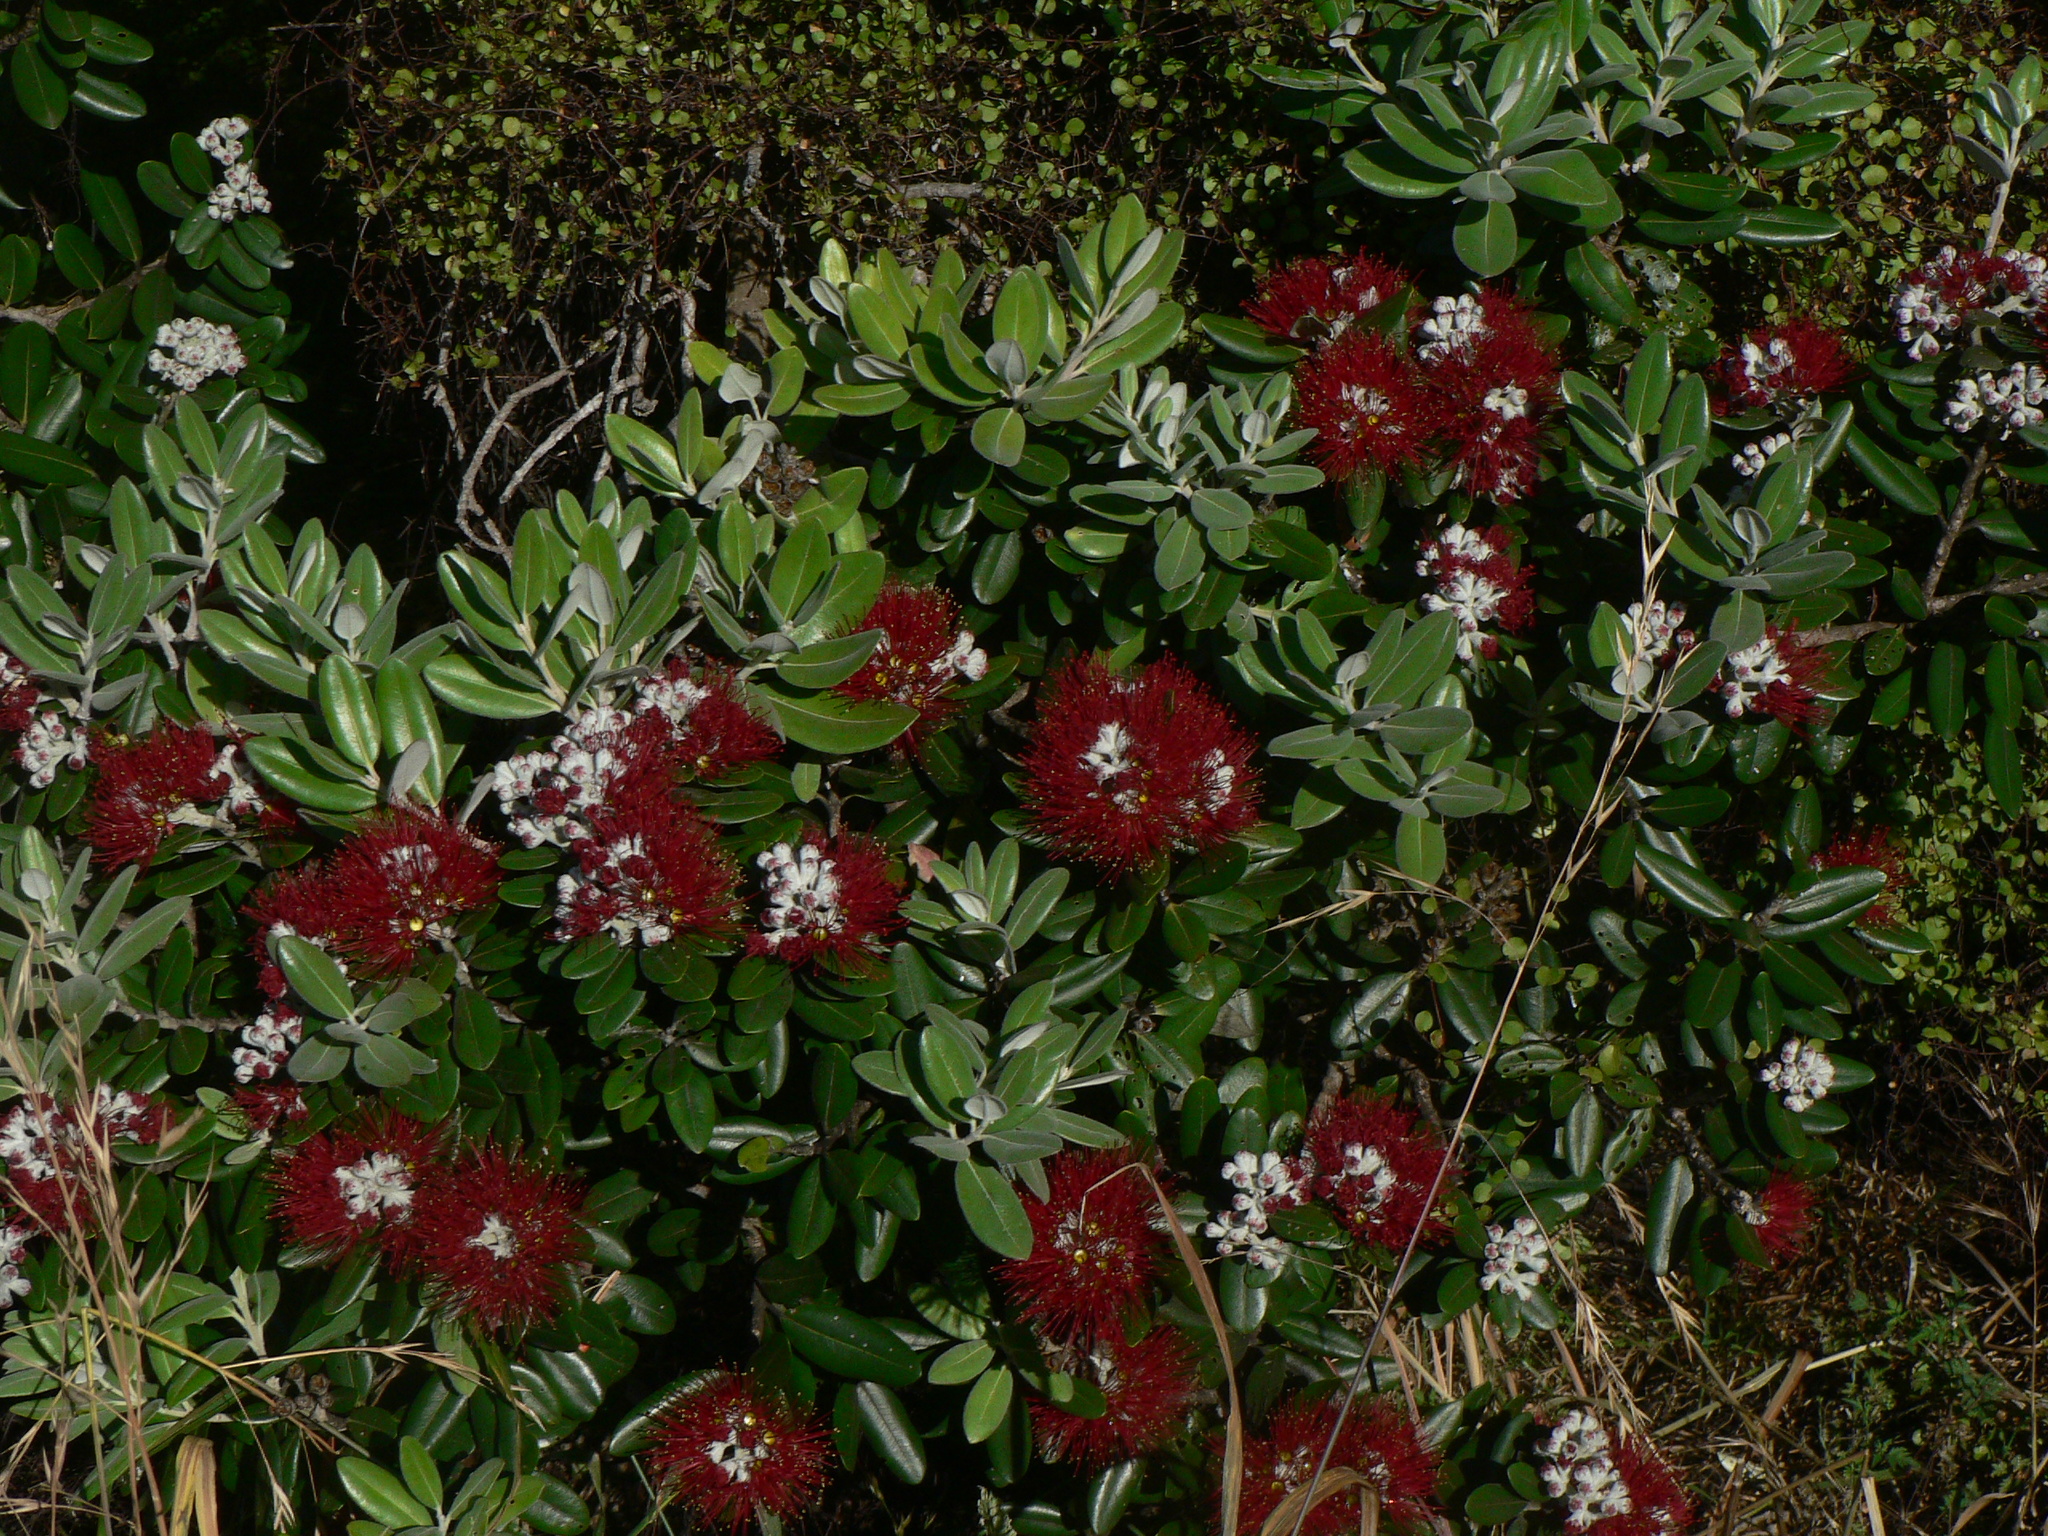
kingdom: Plantae
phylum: Tracheophyta
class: Magnoliopsida
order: Myrtales
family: Myrtaceae
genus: Metrosideros
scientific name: Metrosideros excelsa
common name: New zealand christmastree
